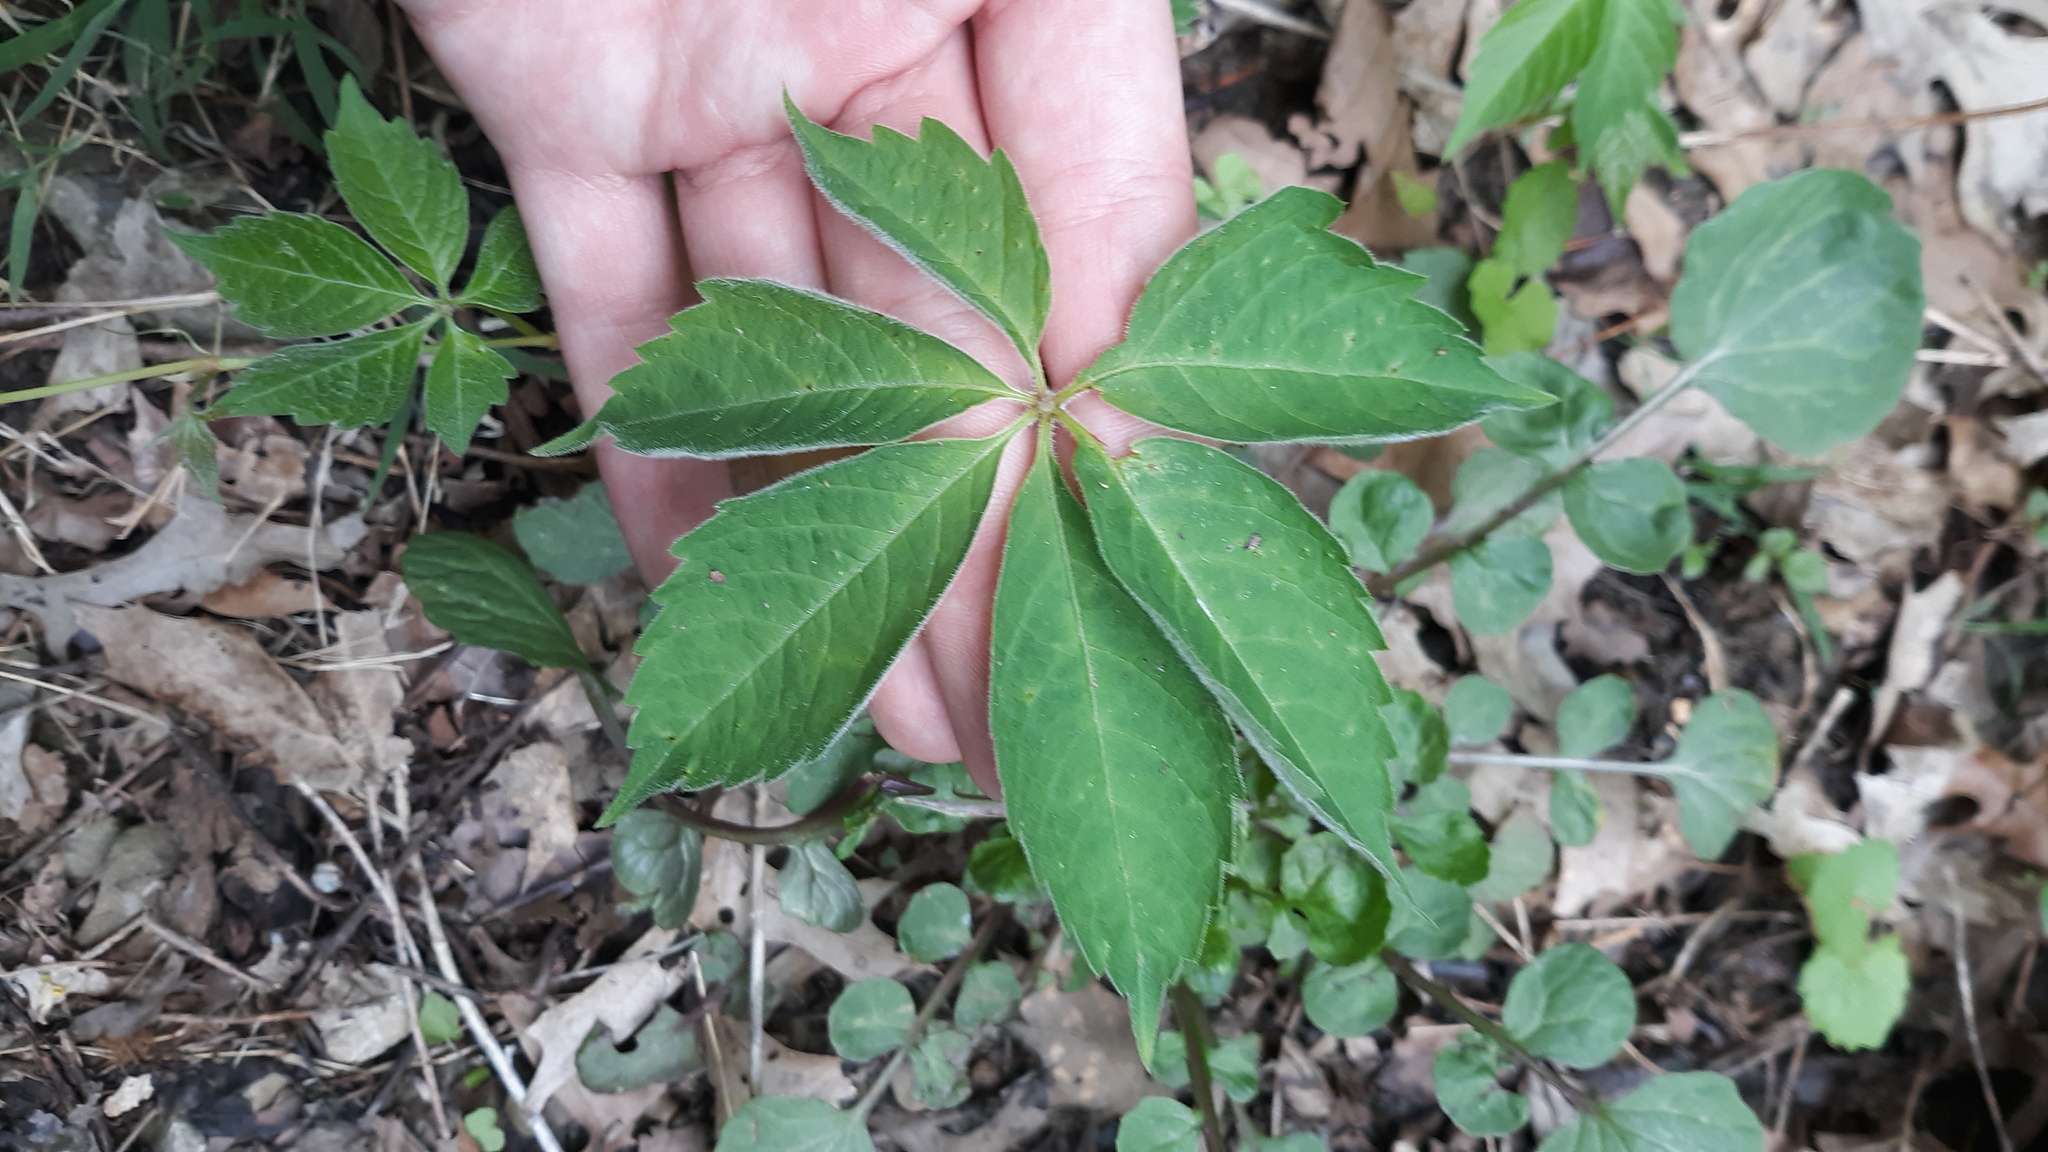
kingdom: Plantae
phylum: Tracheophyta
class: Magnoliopsida
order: Vitales
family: Vitaceae
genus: Parthenocissus
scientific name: Parthenocissus quinquefolia
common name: Virginia-creeper
